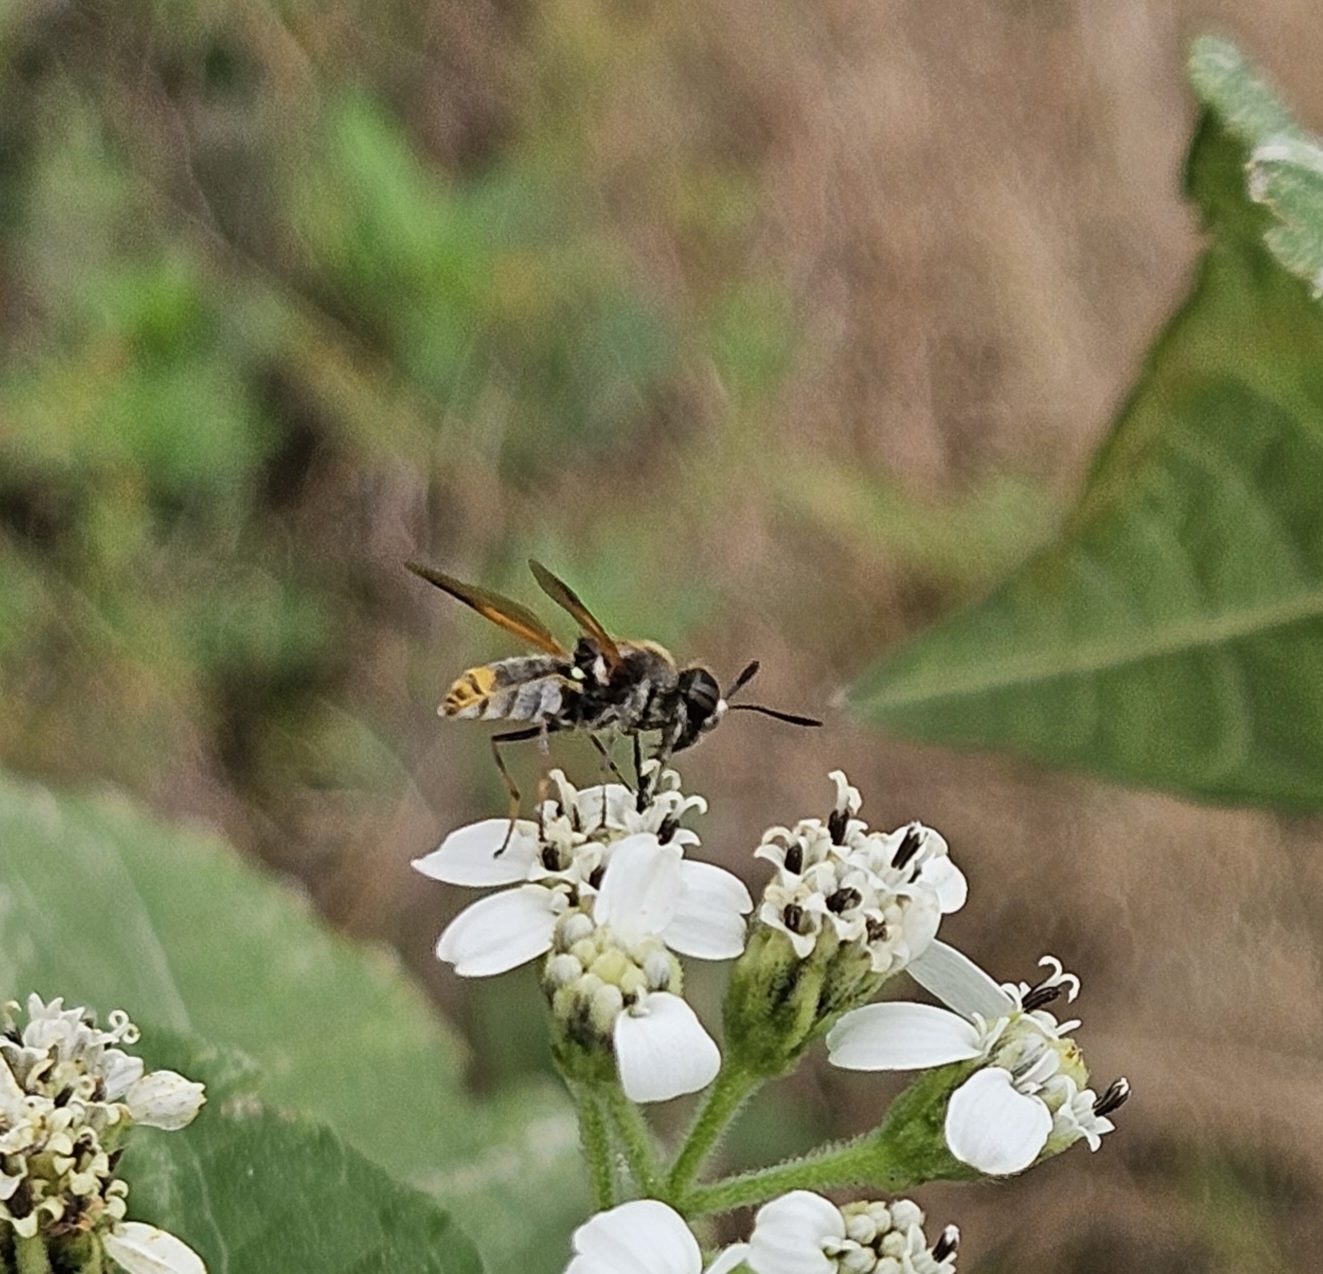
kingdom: Animalia
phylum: Arthropoda
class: Insecta
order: Diptera
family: Stratiomyidae
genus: Hoplitimyia
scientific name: Hoplitimyia mutabilis
